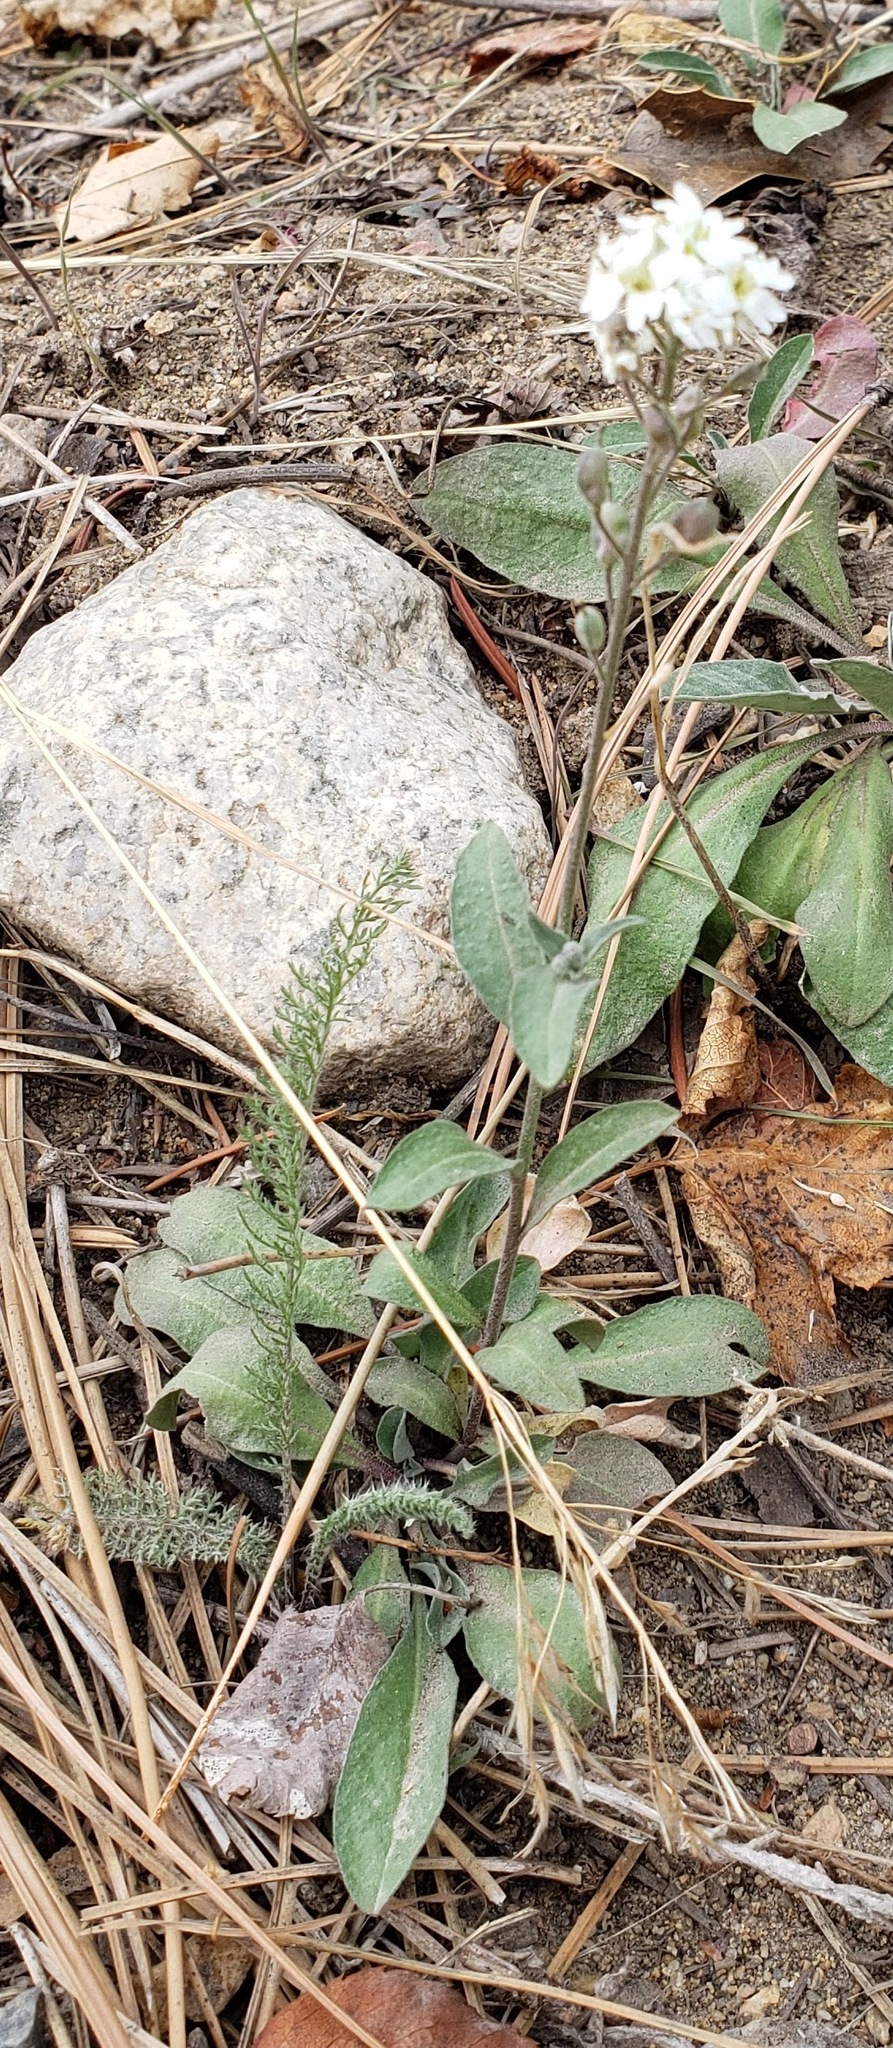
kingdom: Plantae
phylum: Tracheophyta
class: Magnoliopsida
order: Brassicales
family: Brassicaceae
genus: Berteroa
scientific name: Berteroa incana
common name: Hoary alison
